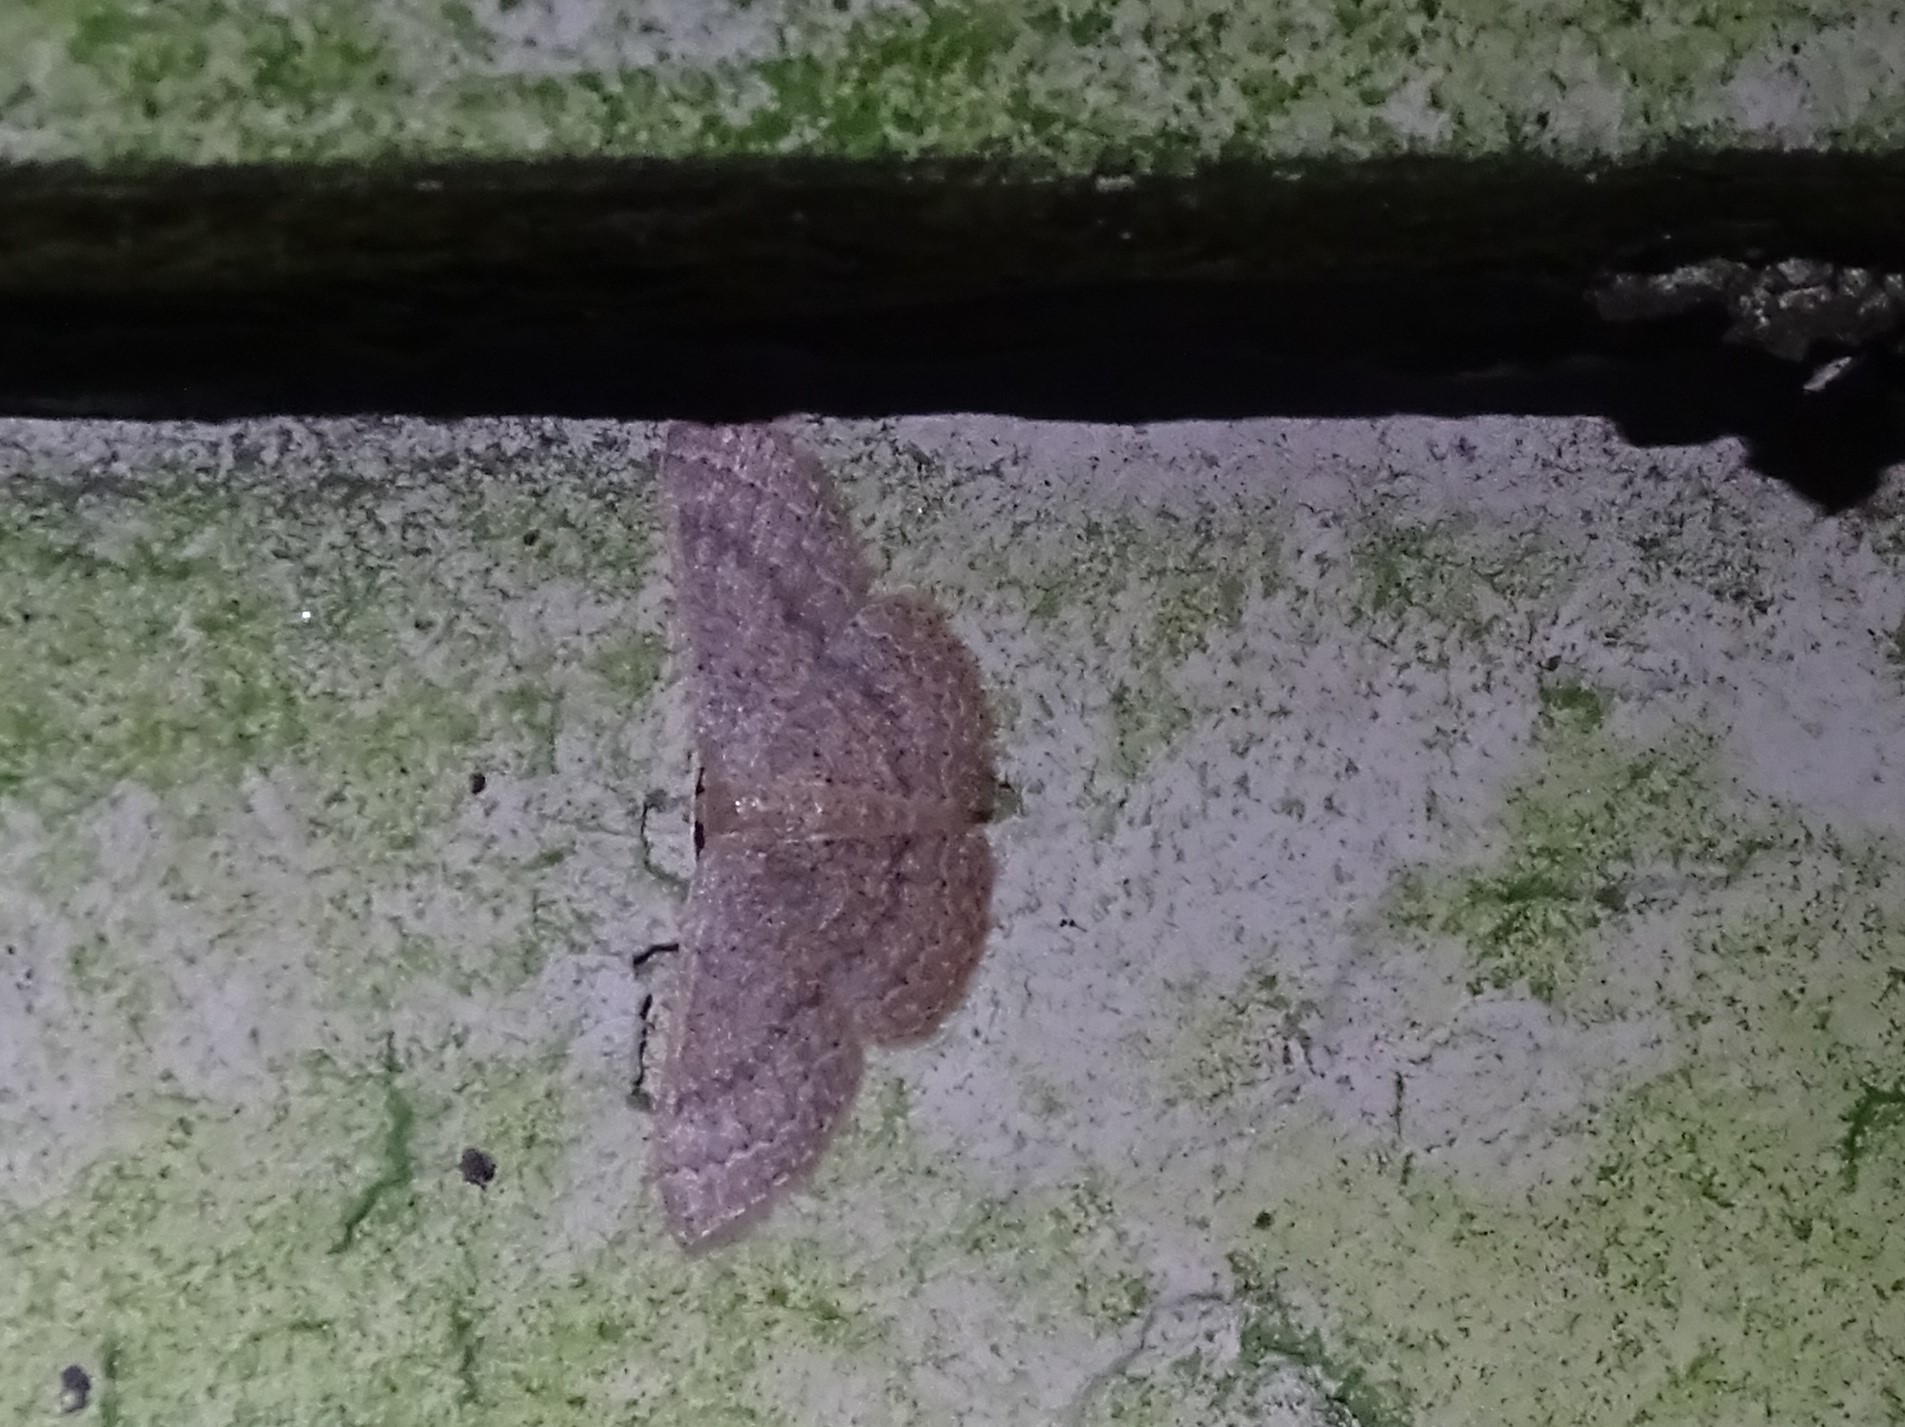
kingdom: Animalia
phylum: Arthropoda
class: Insecta
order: Lepidoptera
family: Geometridae
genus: Pleuroprucha
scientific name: Pleuroprucha insulsaria
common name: Common tan wave
